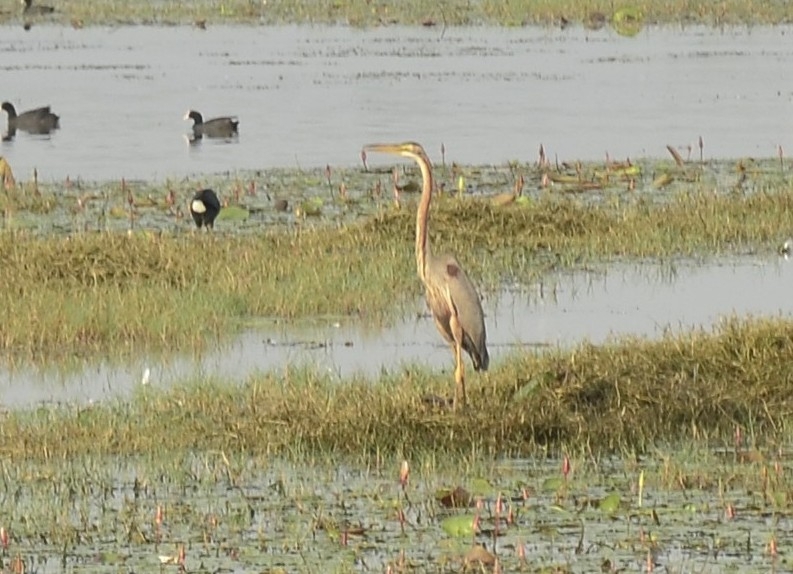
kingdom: Animalia
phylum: Chordata
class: Aves
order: Pelecaniformes
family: Ardeidae
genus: Ardea
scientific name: Ardea purpurea
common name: Purple heron
